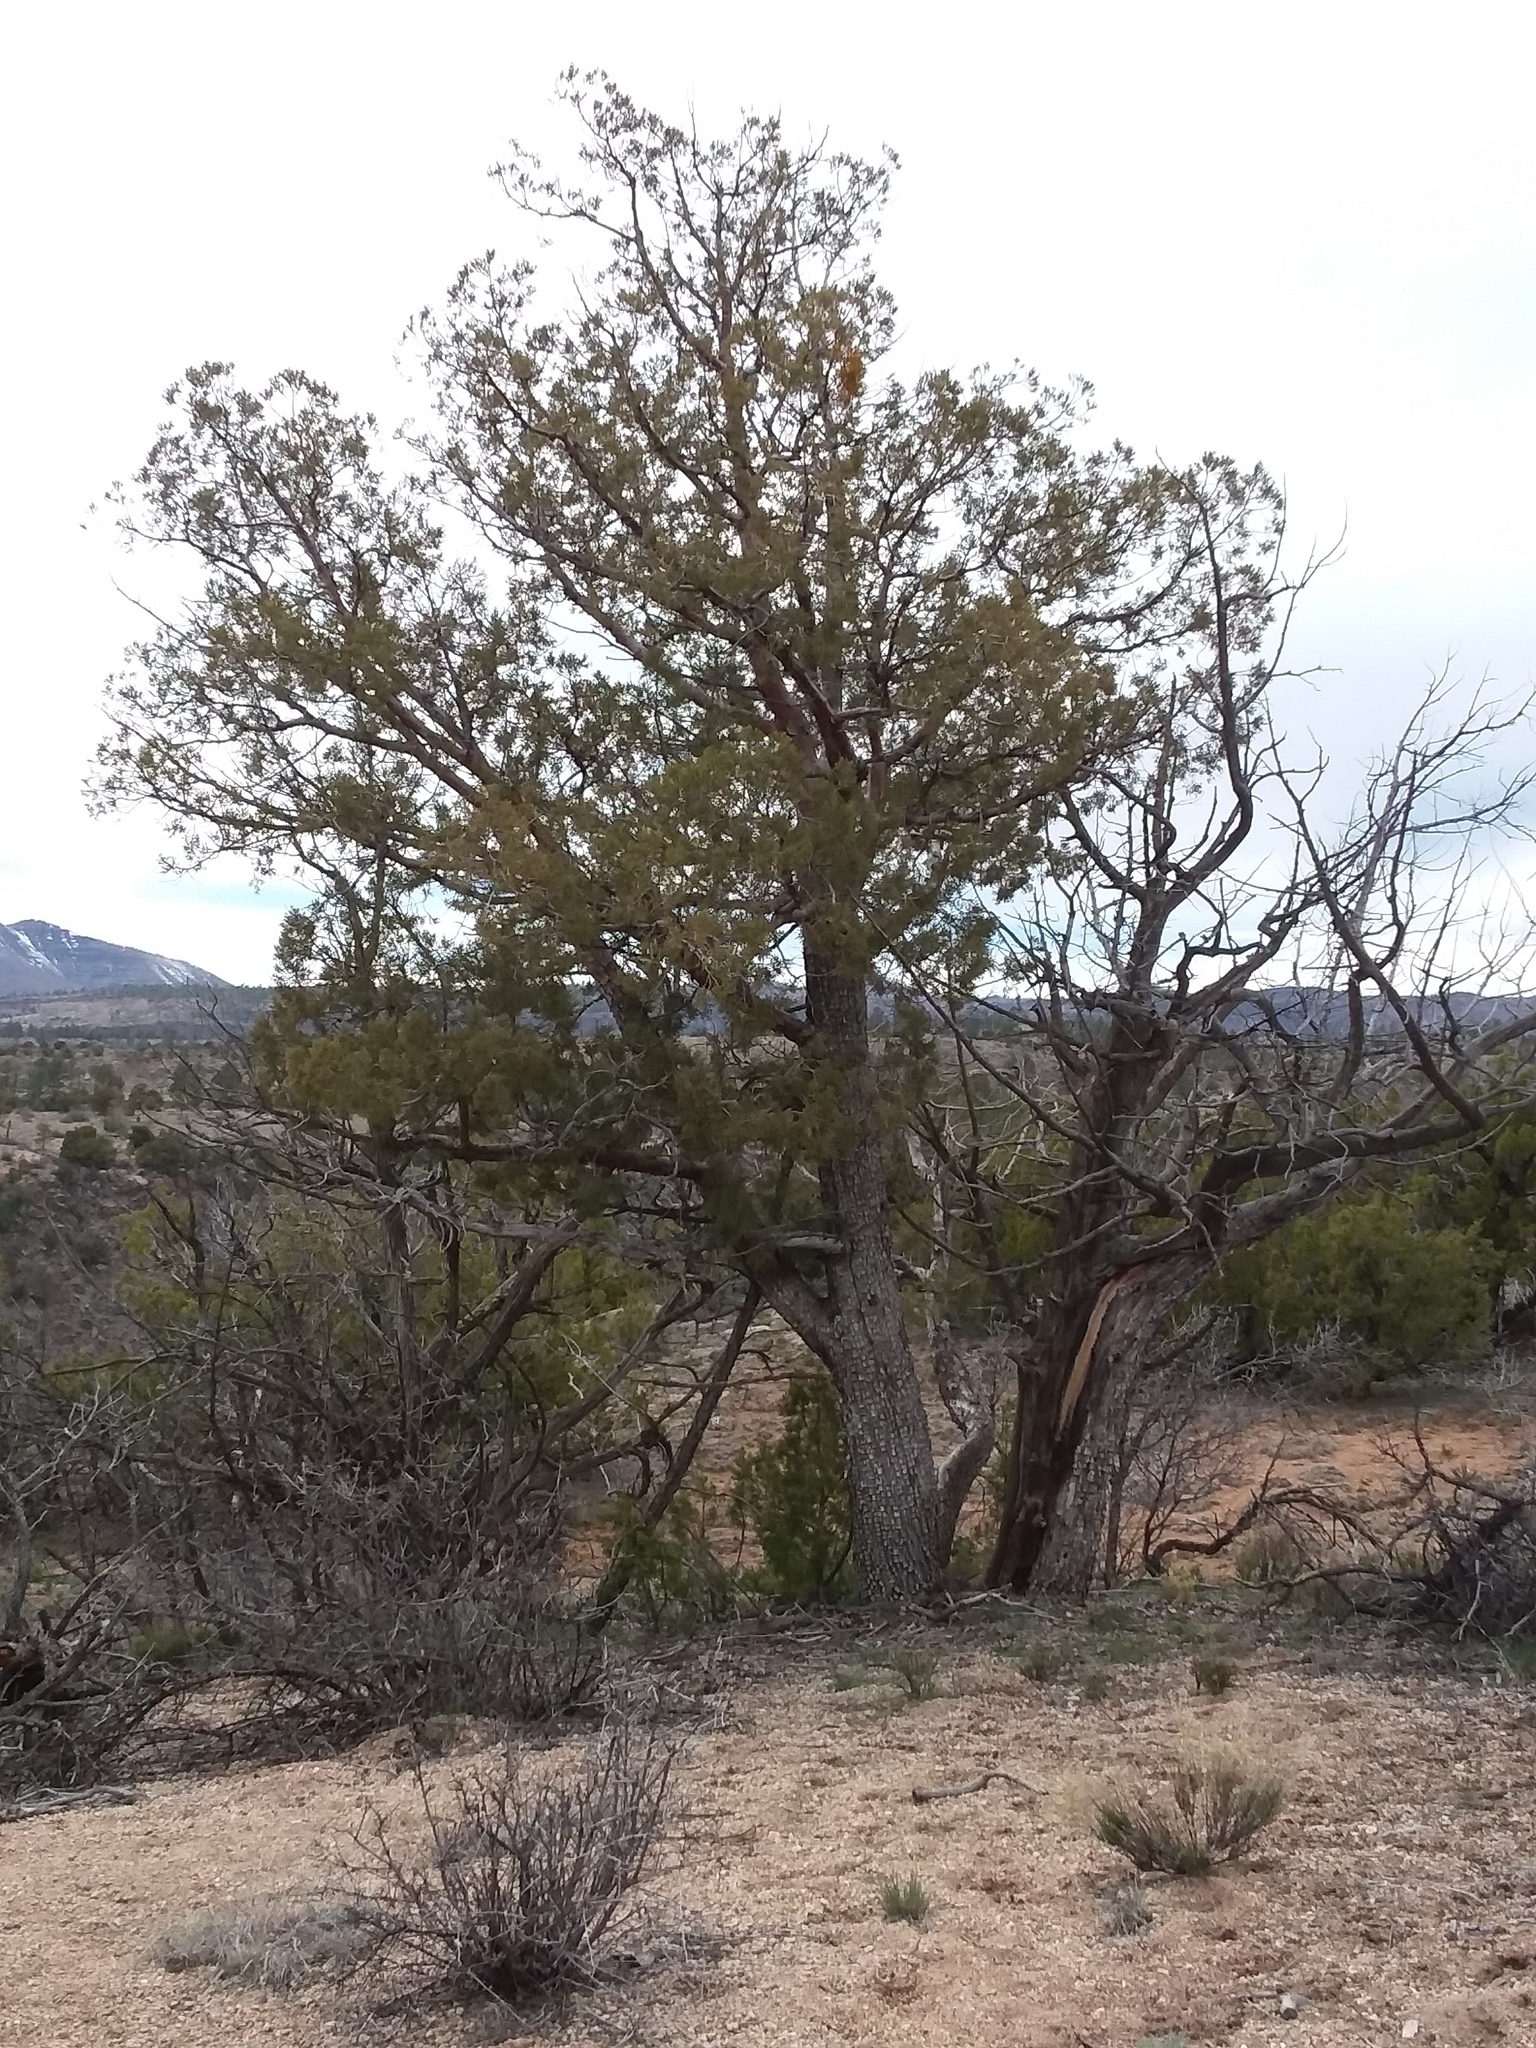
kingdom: Plantae
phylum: Tracheophyta
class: Pinopsida
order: Pinales
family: Cupressaceae
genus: Juniperus
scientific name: Juniperus deppeana
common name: Alligator juniper
